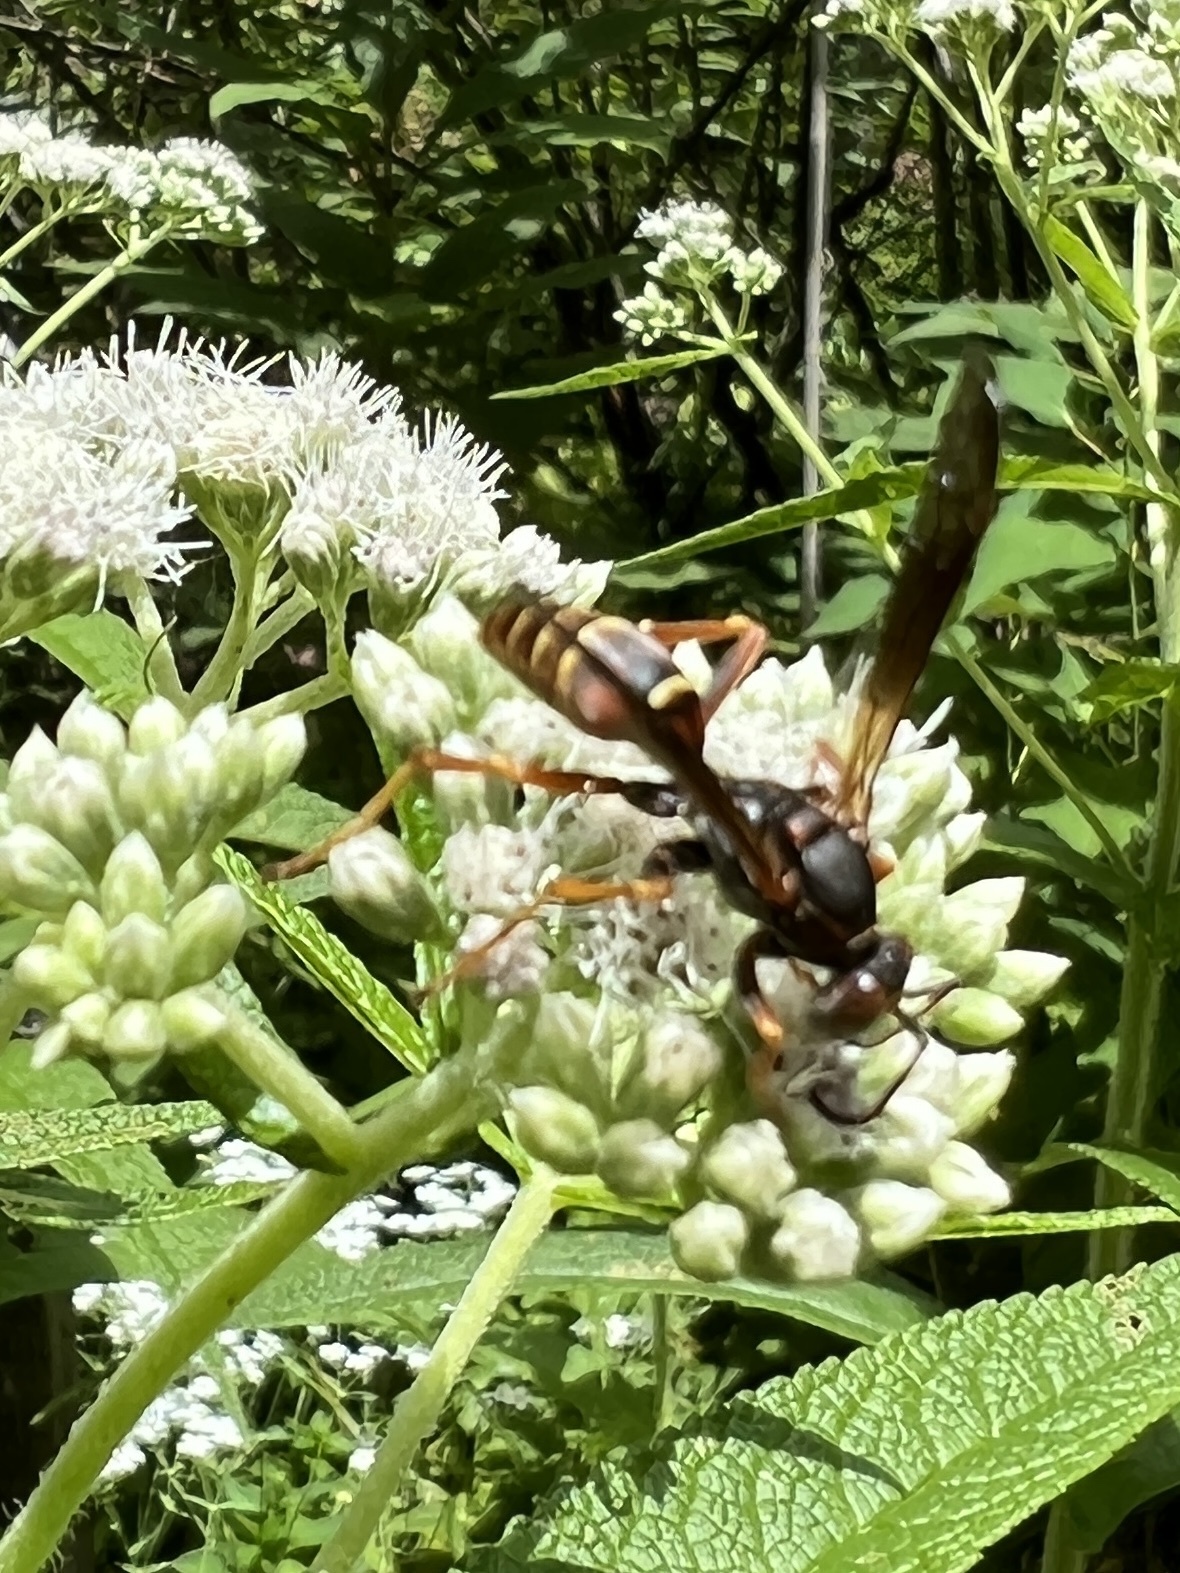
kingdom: Animalia
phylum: Arthropoda
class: Insecta
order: Hymenoptera
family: Eumenidae
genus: Polistes
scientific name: Polistes fuscatus
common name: Dark paper wasp
